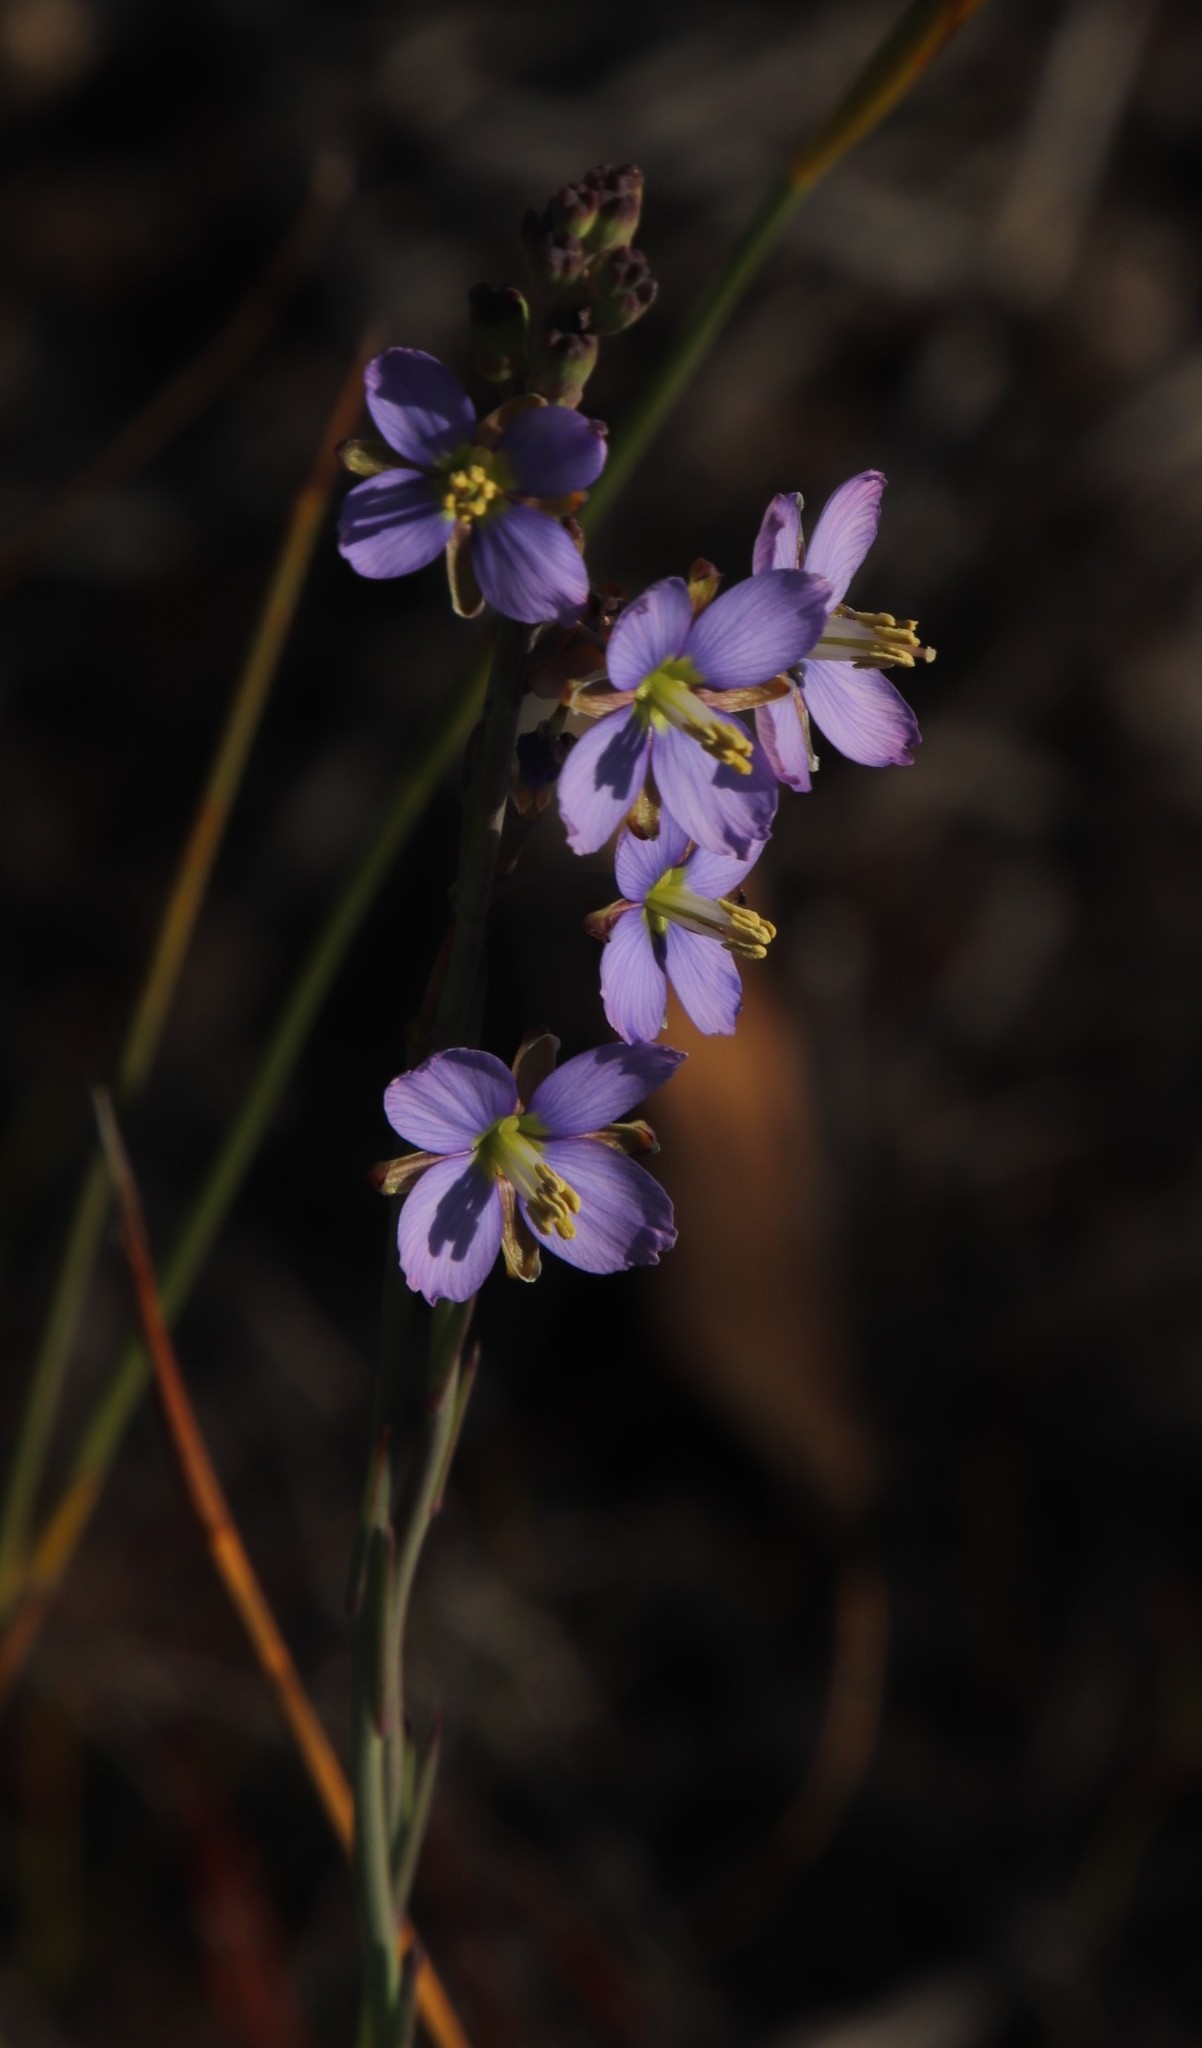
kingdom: Plantae
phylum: Tracheophyta
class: Magnoliopsida
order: Brassicales
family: Brassicaceae
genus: Heliophila
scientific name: Heliophila linearis
